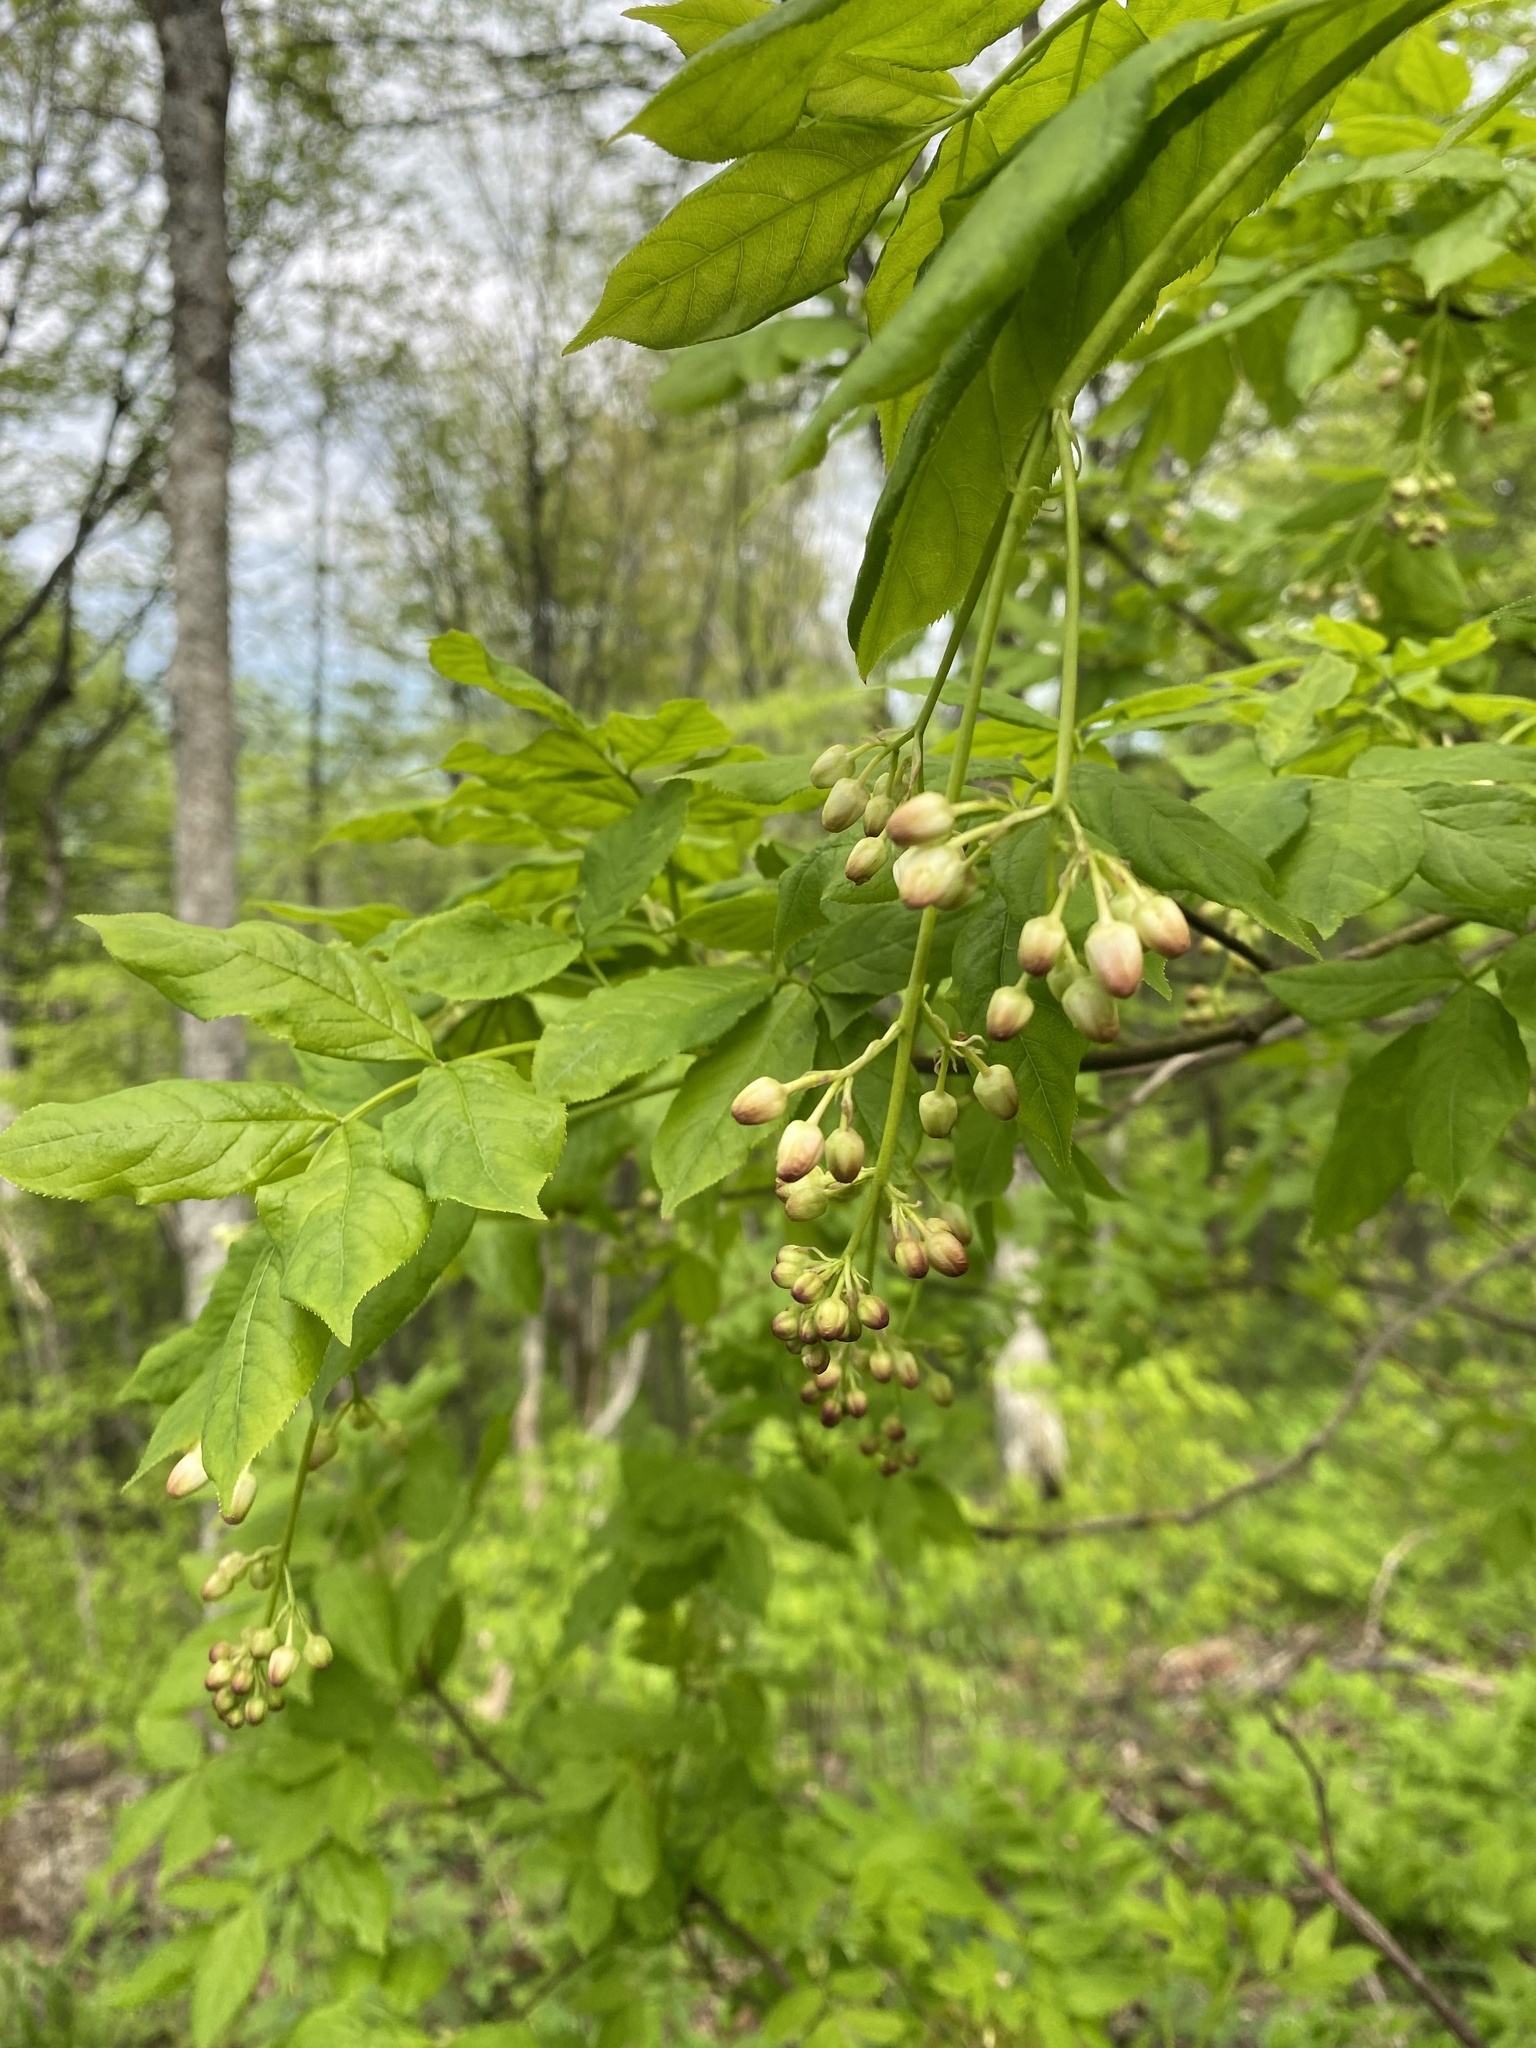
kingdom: Plantae
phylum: Tracheophyta
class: Magnoliopsida
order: Crossosomatales
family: Staphyleaceae
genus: Staphylea
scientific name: Staphylea colchica
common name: Caucasian bladdernut
